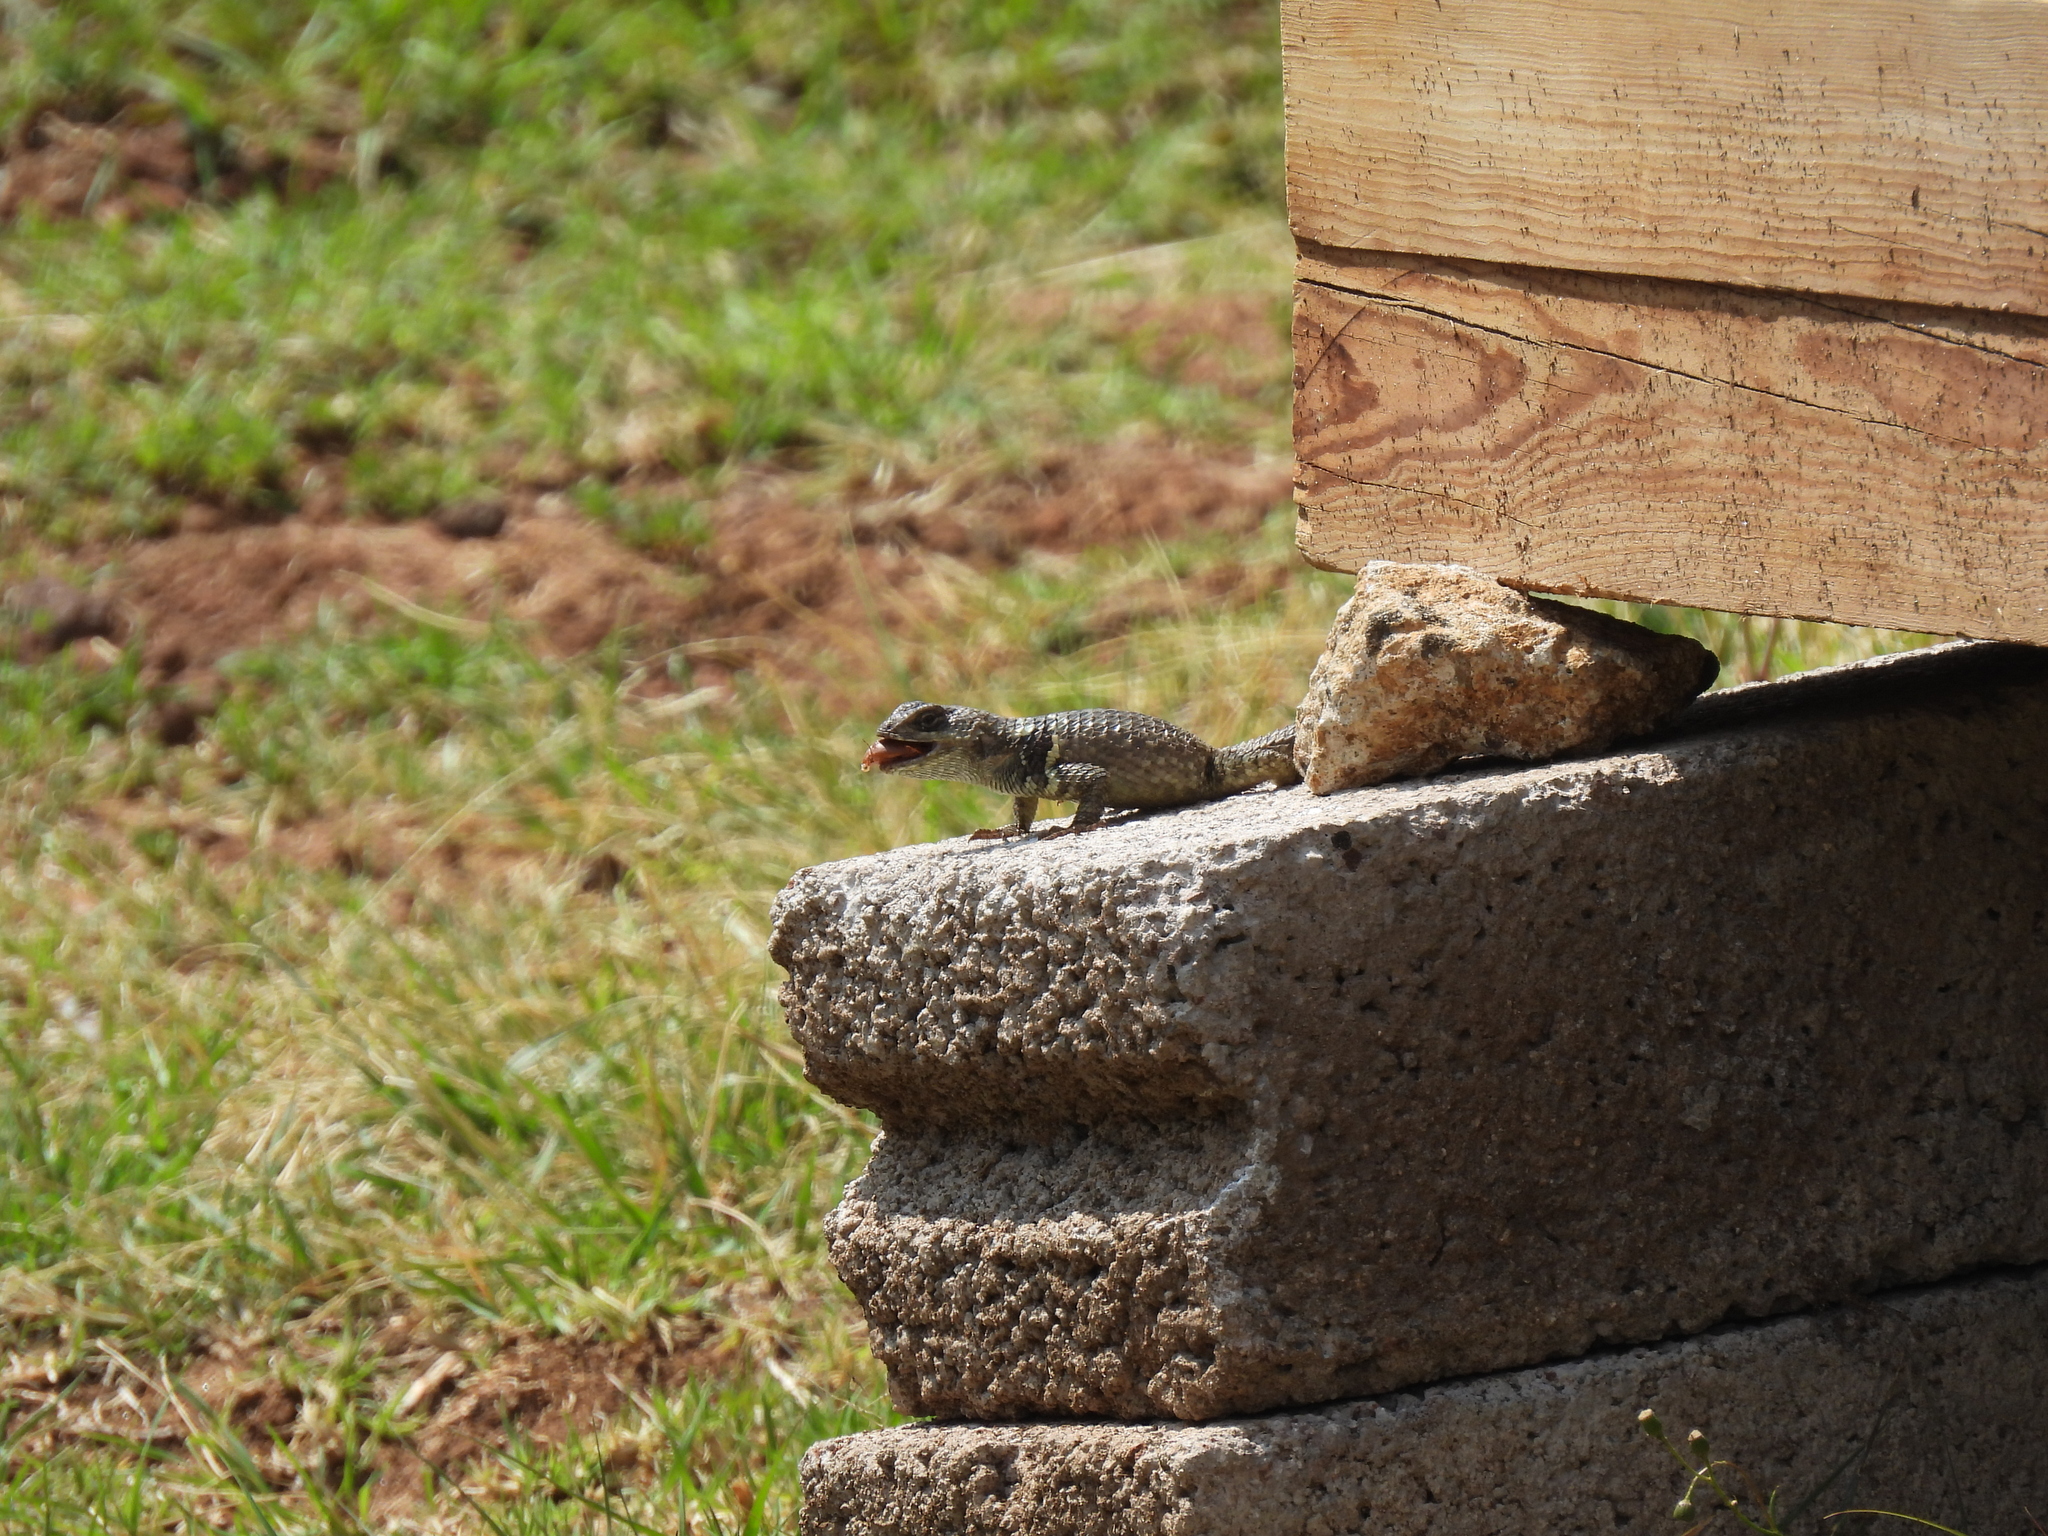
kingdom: Animalia
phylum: Chordata
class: Squamata
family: Phrynosomatidae
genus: Sceloporus
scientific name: Sceloporus torquatus
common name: Central plateau torquate lizard [melanogaster]
